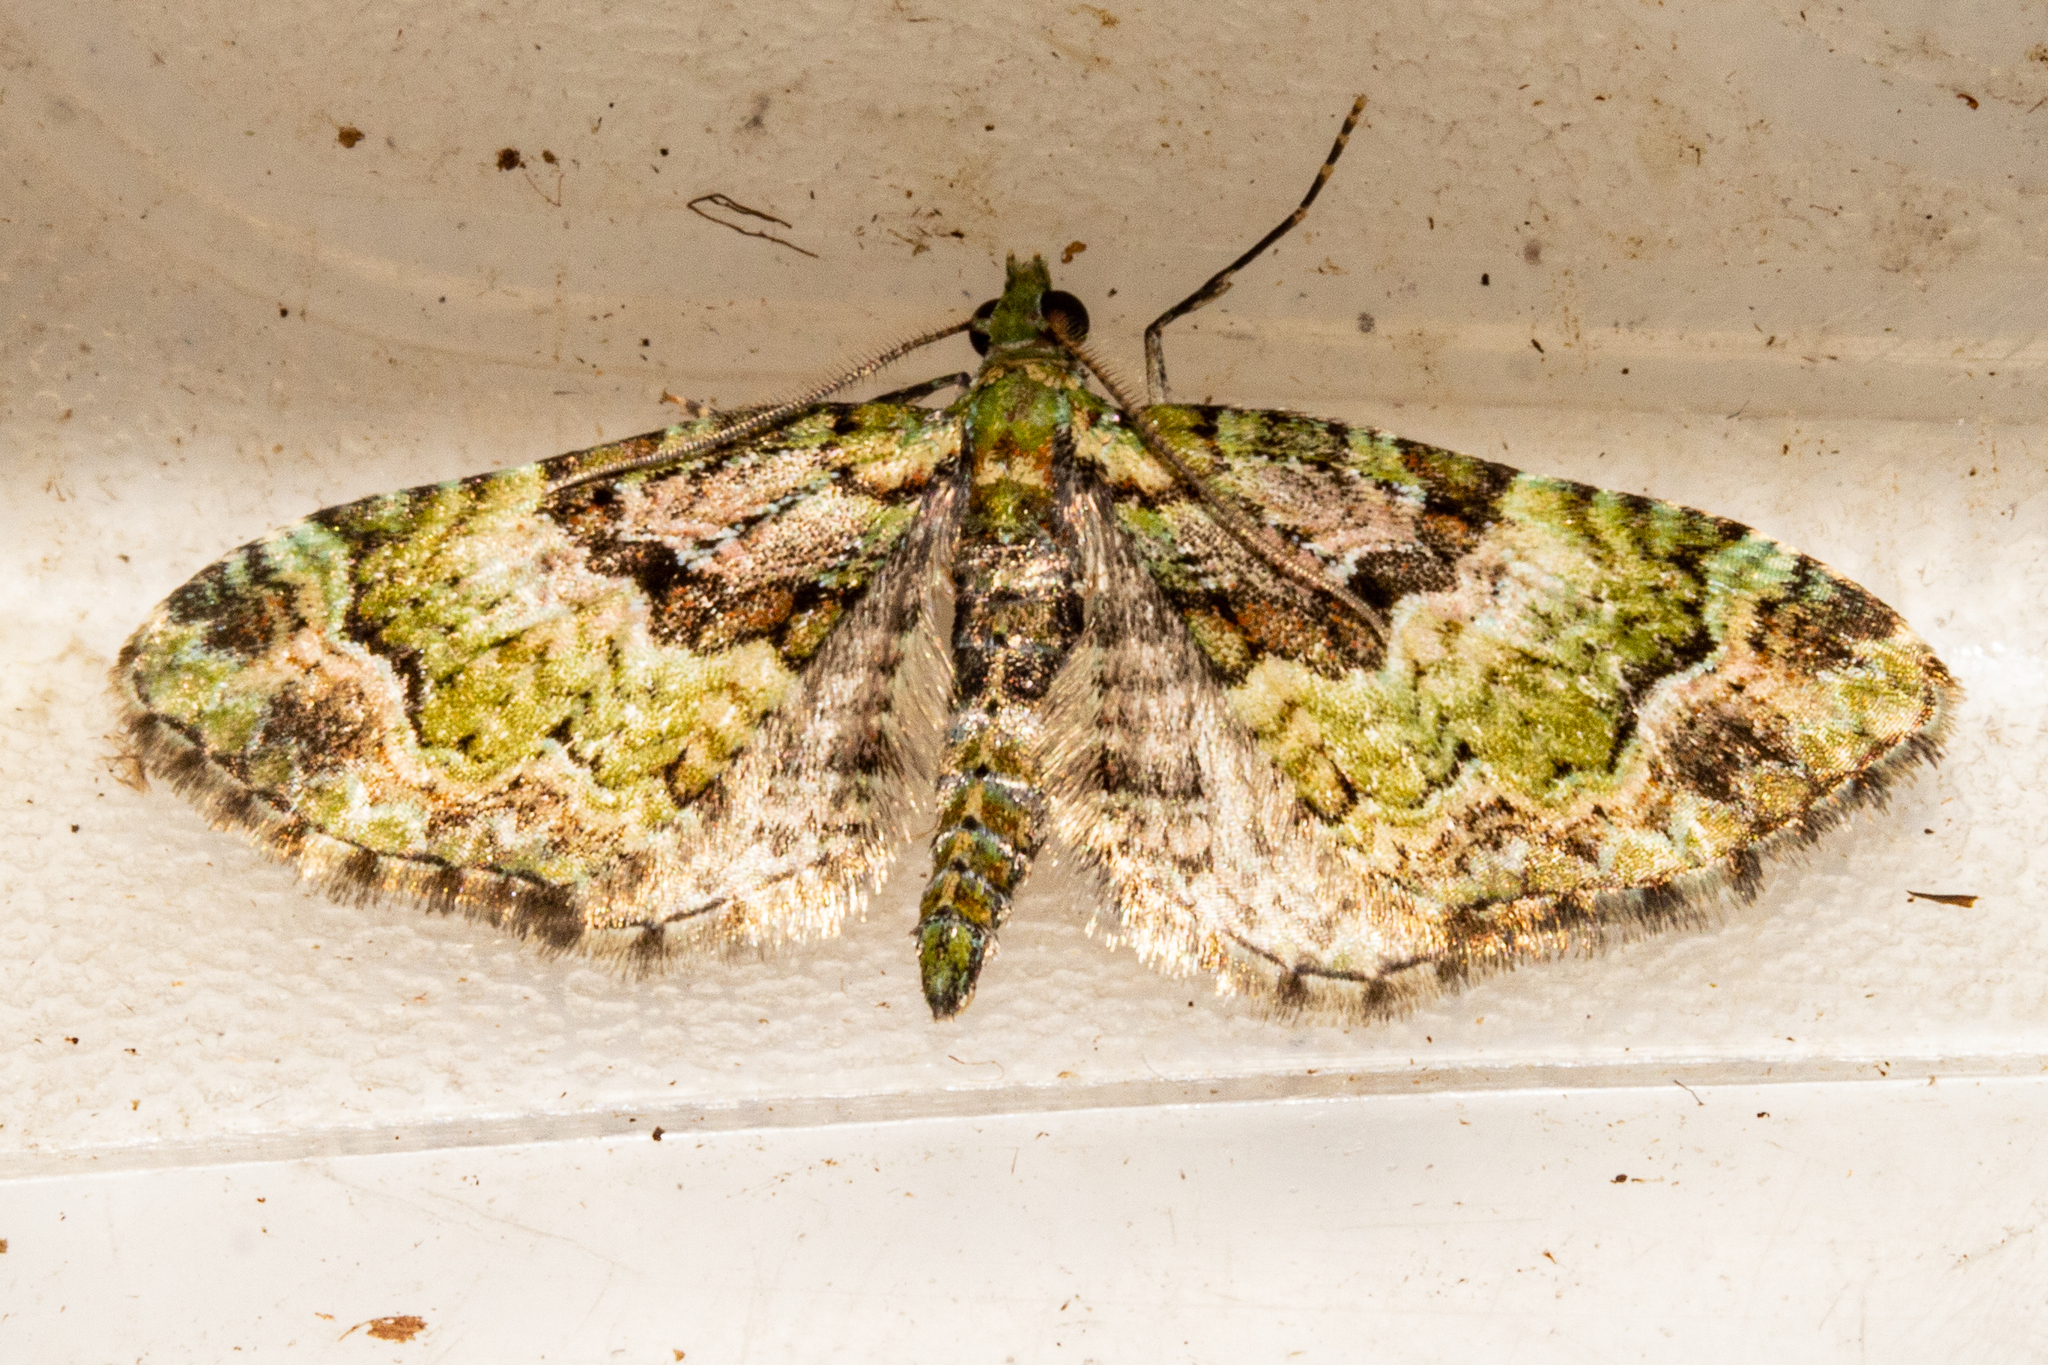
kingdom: Animalia
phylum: Arthropoda
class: Insecta
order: Lepidoptera
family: Geometridae
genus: Pasiphila
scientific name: Pasiphila punicea
